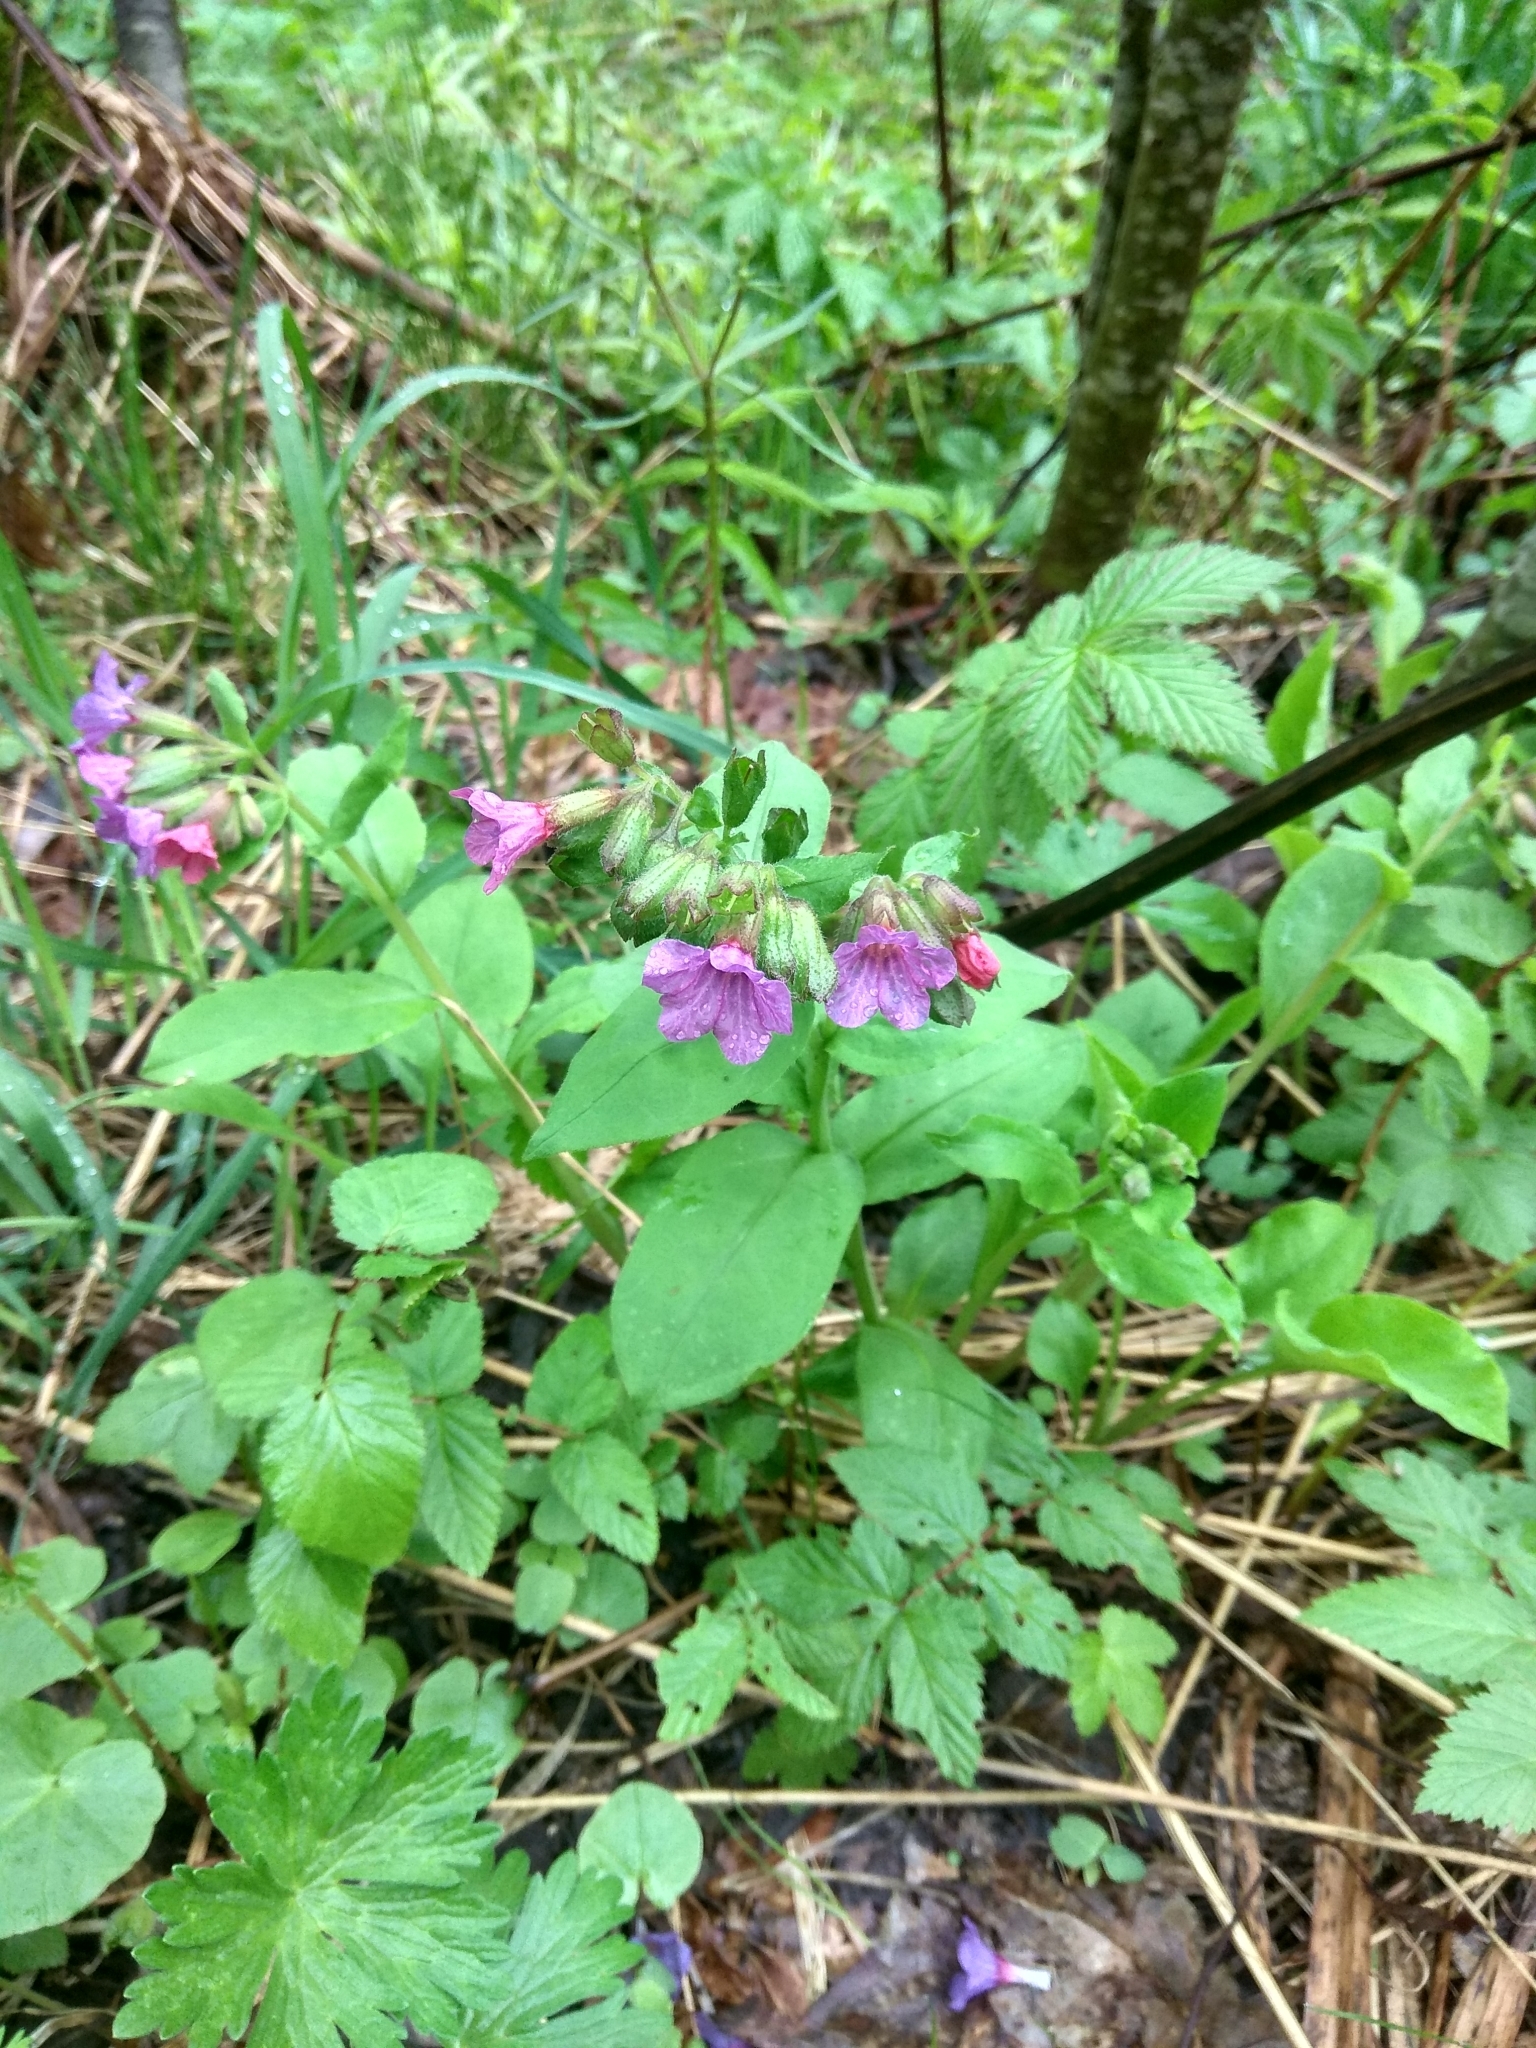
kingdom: Plantae
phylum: Tracheophyta
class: Magnoliopsida
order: Boraginales
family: Boraginaceae
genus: Pulmonaria
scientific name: Pulmonaria obscura
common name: Suffolk lungwort
